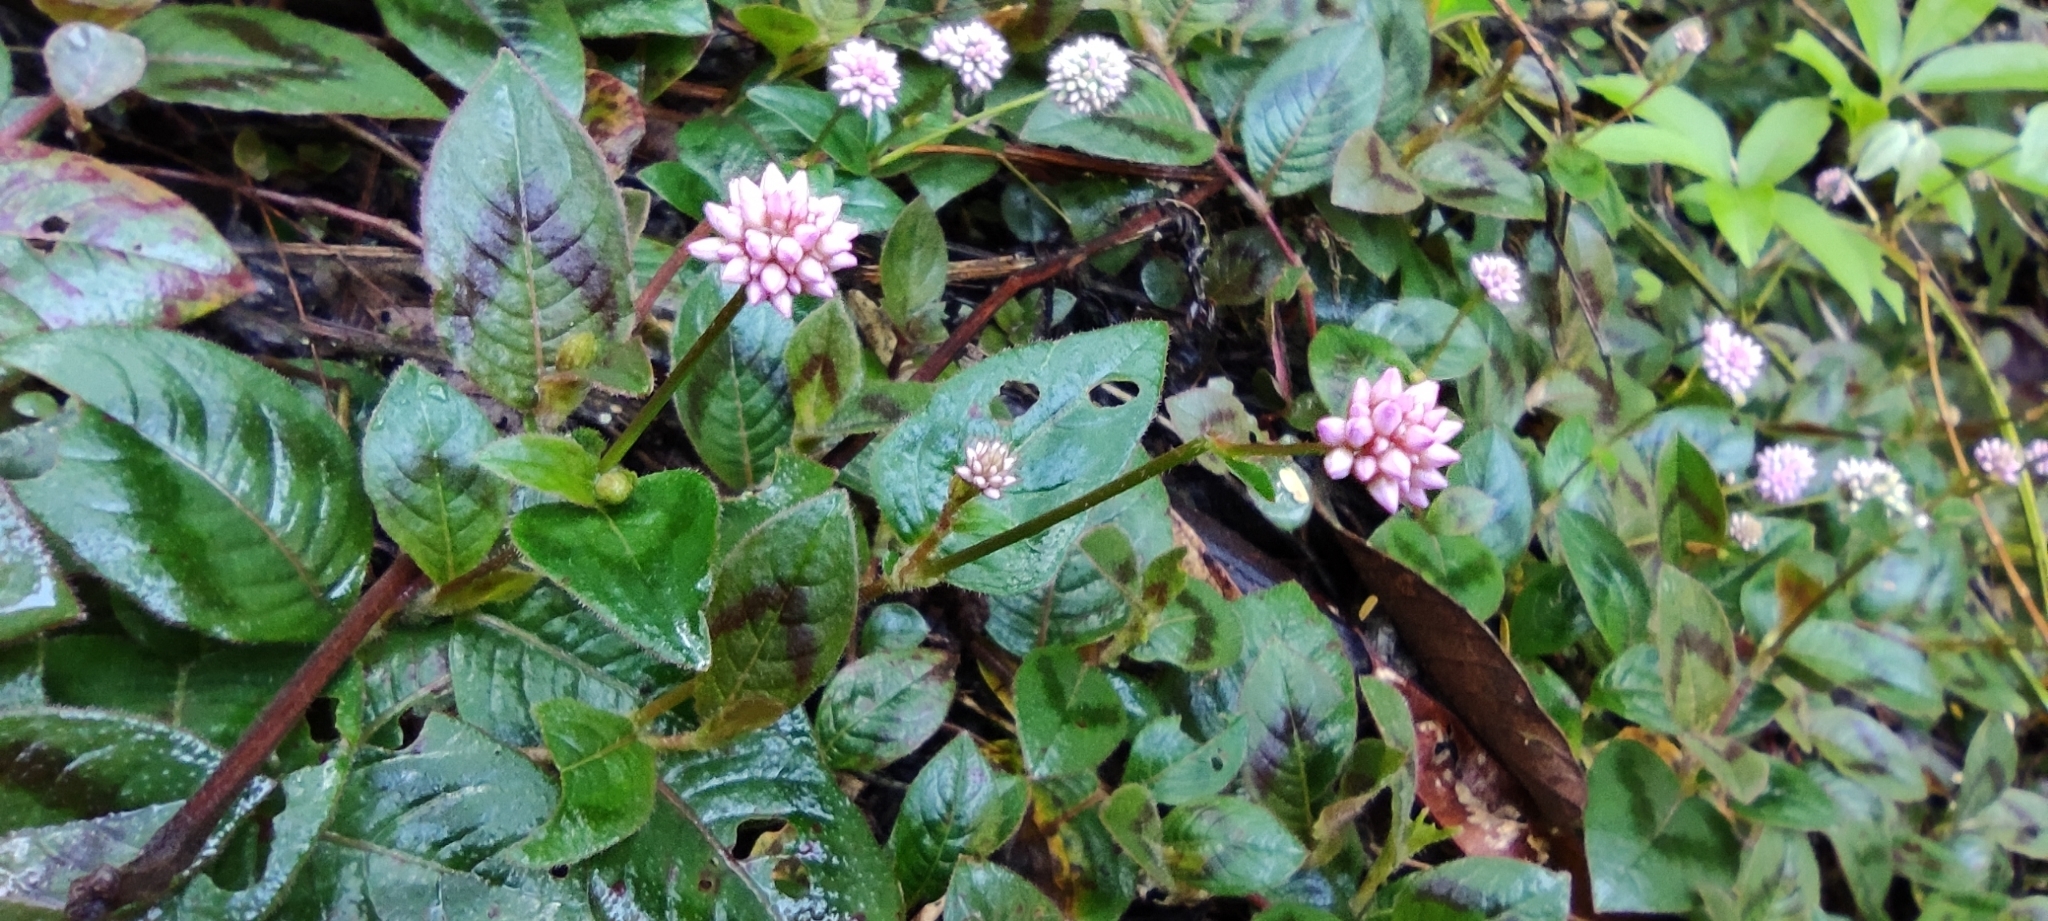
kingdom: Plantae
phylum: Tracheophyta
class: Magnoliopsida
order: Caryophyllales
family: Polygonaceae
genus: Persicaria
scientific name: Persicaria capitata
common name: Pinkhead smartweed
